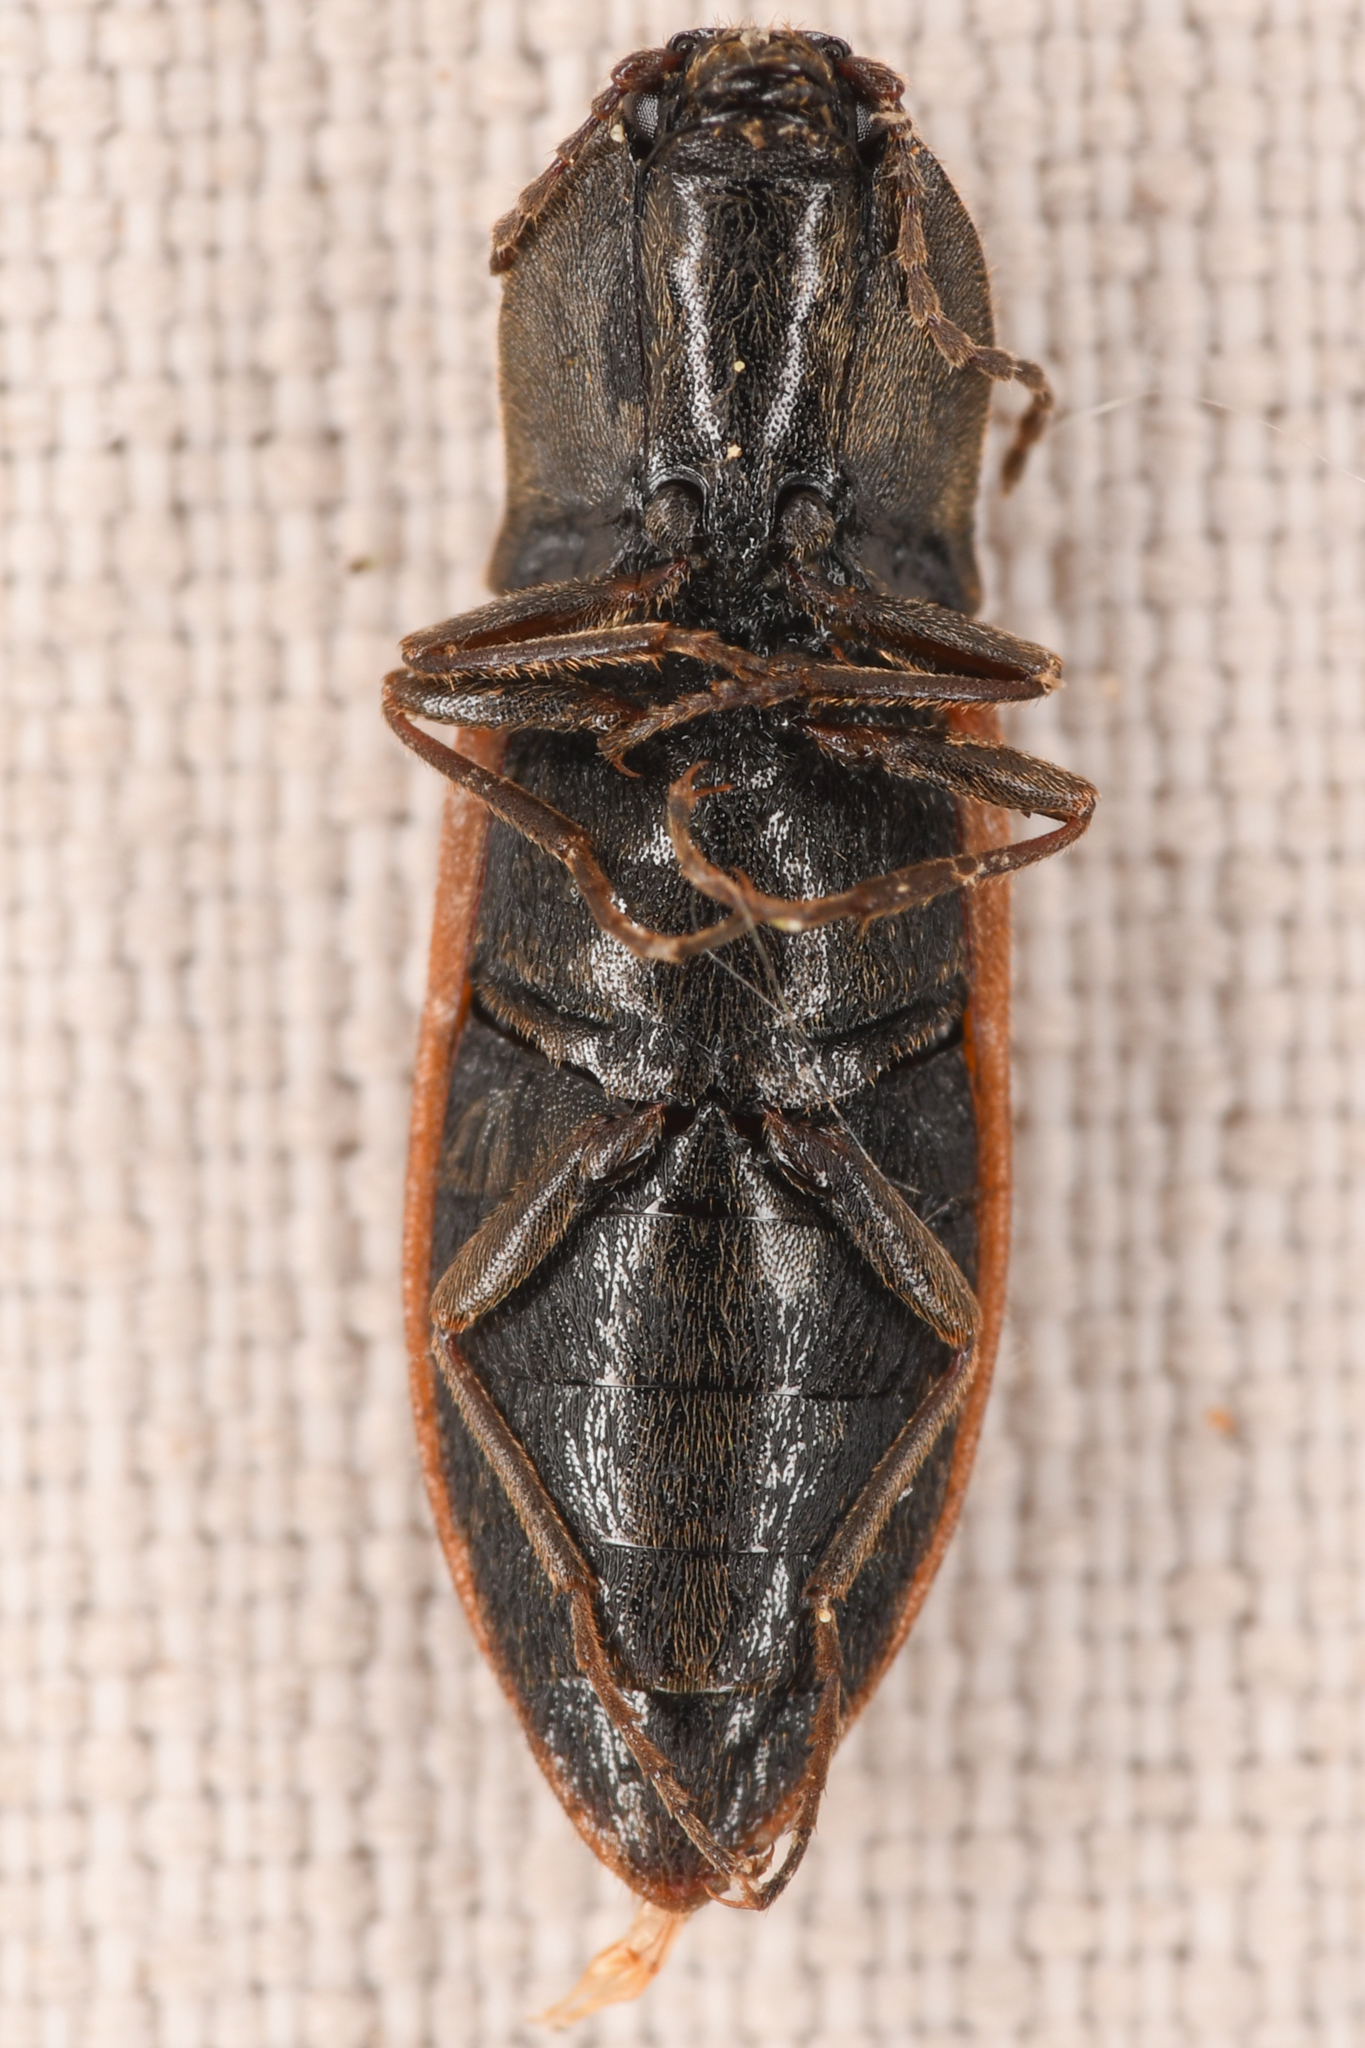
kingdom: Animalia
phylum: Arthropoda
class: Insecta
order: Coleoptera
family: Elateridae
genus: Pseudanostirus
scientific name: Pseudanostirus hoppingi
